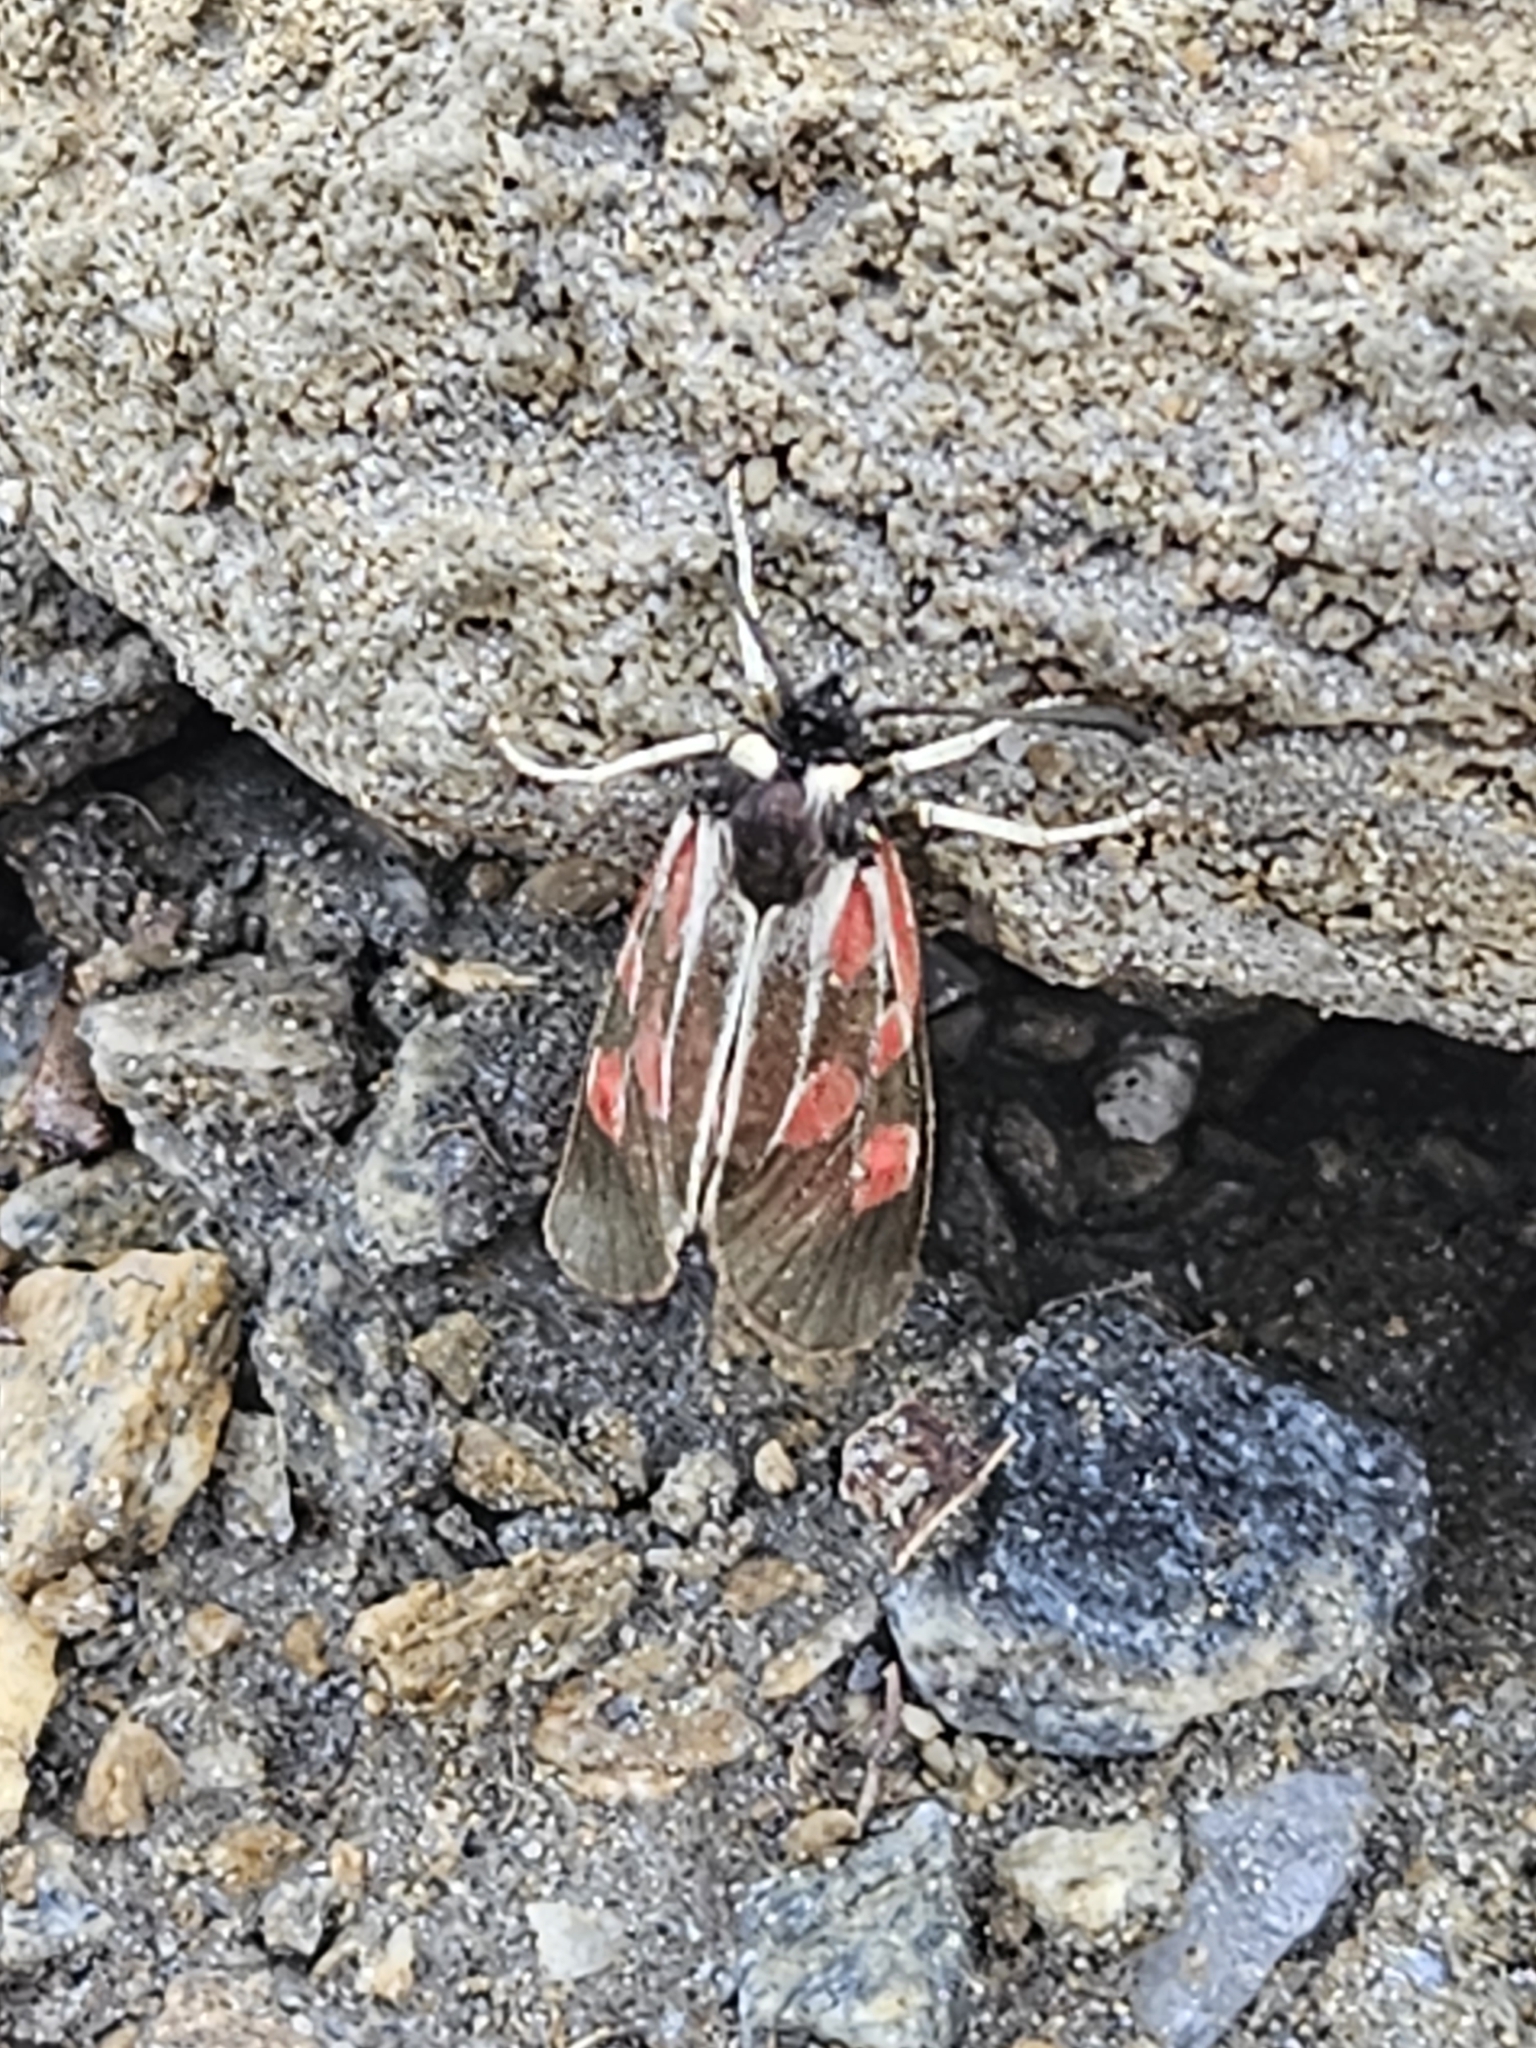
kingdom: Animalia
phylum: Arthropoda
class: Insecta
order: Lepidoptera
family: Zygaenidae
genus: Zygaena
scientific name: Zygaena exulans
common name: Scotch burnet
